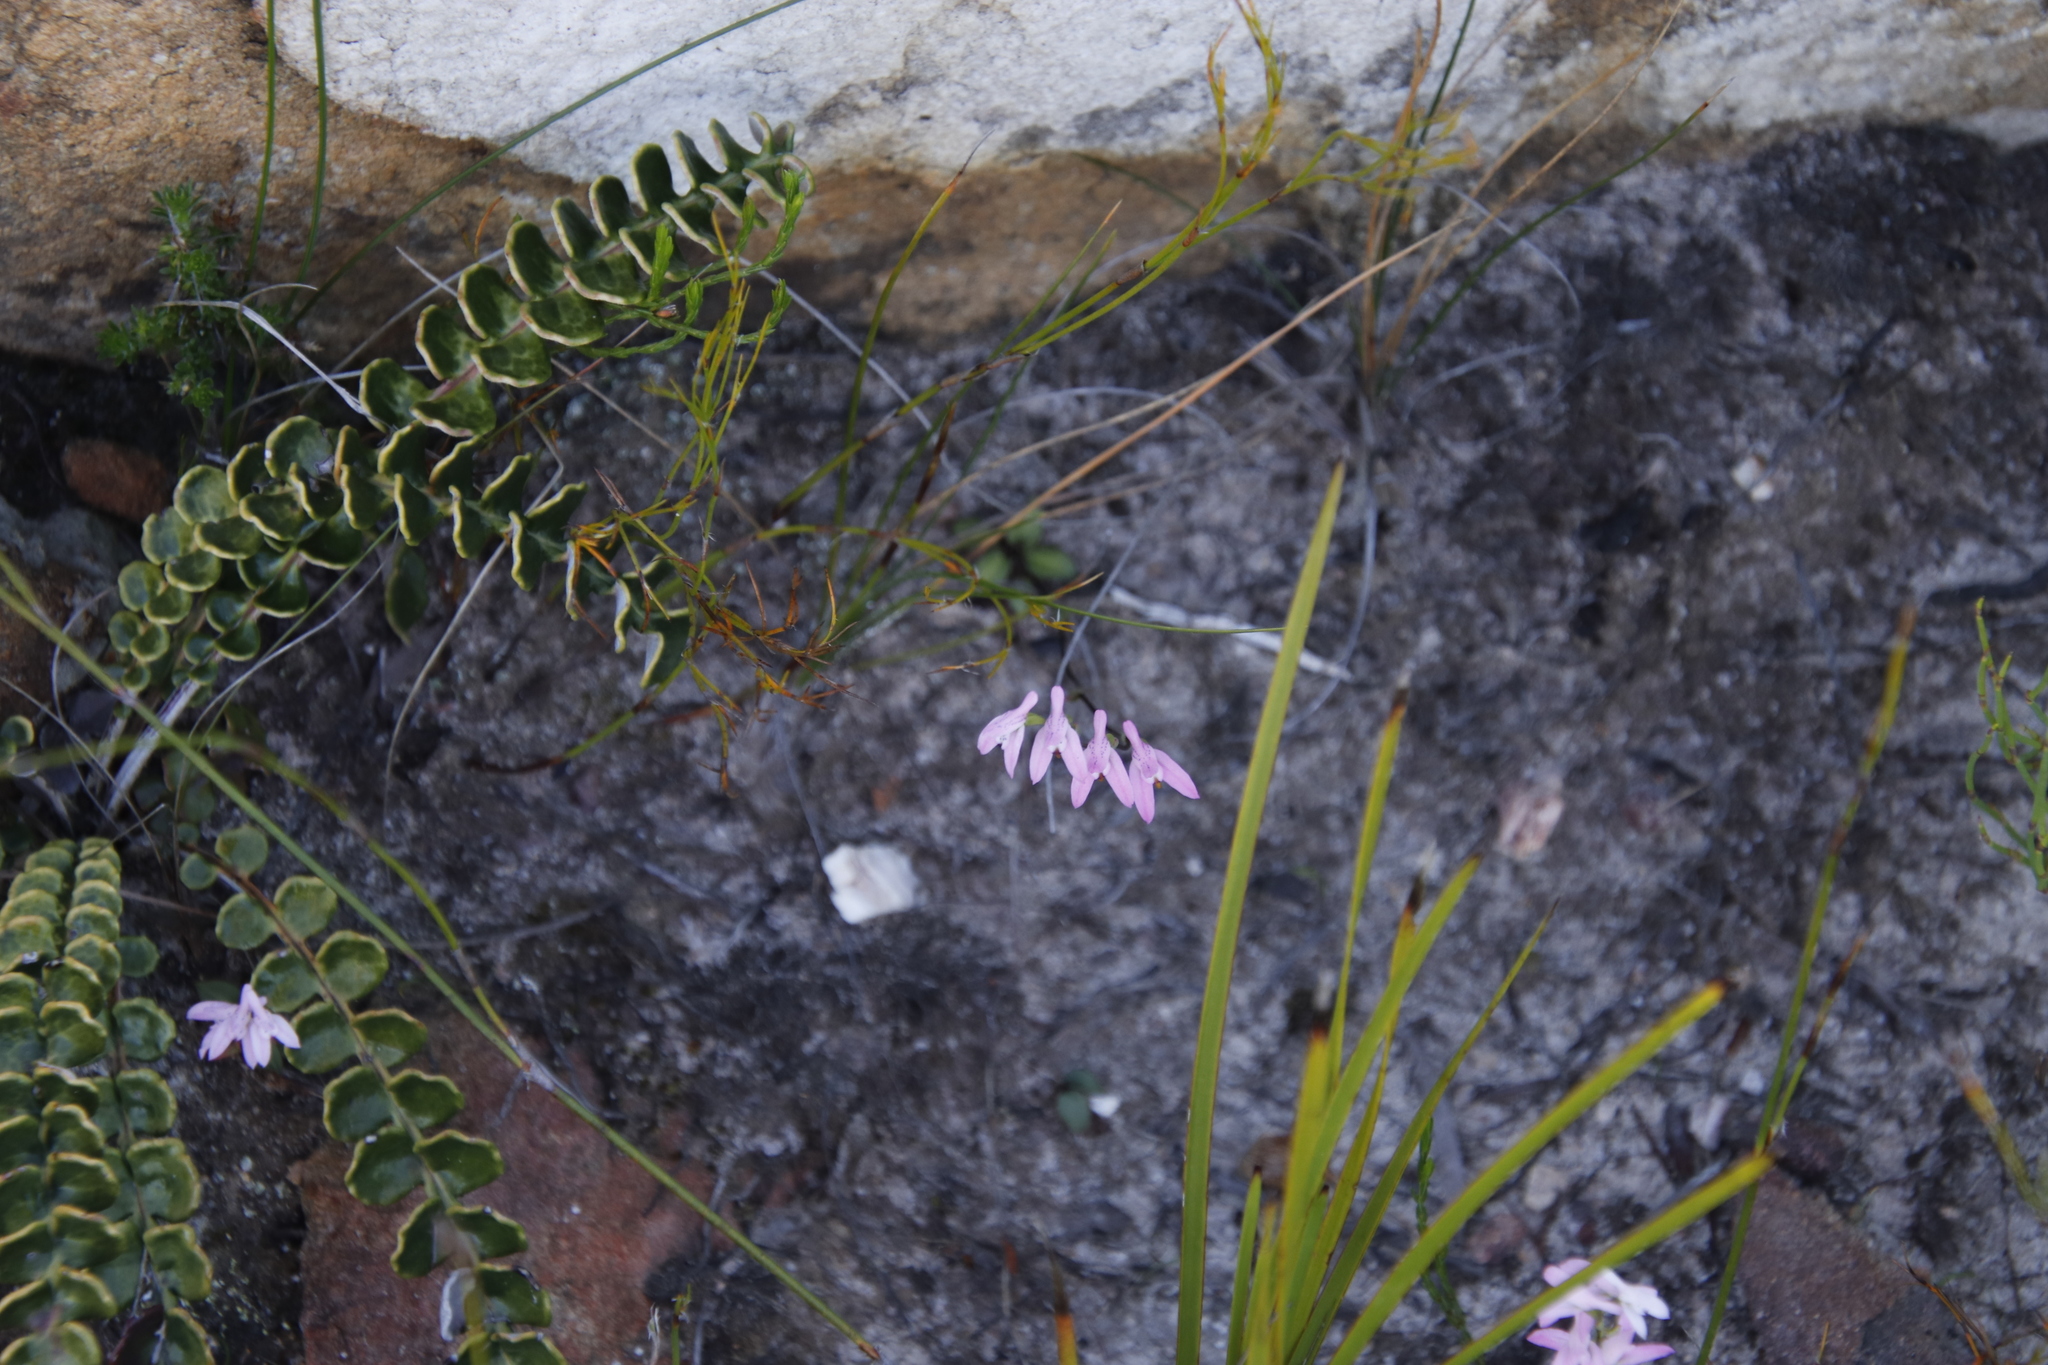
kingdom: Plantae
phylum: Tracheophyta
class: Magnoliopsida
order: Asterales
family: Asteraceae
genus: Gerbera
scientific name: Gerbera linnaei
